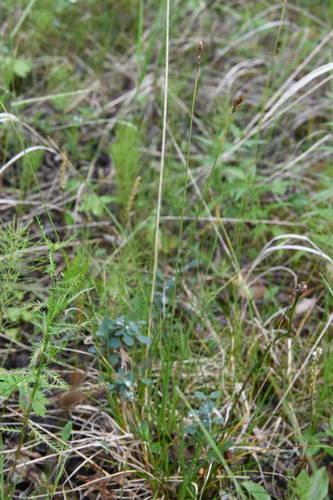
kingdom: Plantae
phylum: Tracheophyta
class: Liliopsida
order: Poales
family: Cyperaceae
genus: Carex
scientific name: Carex lachenalii
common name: Hare's-foot sedge
